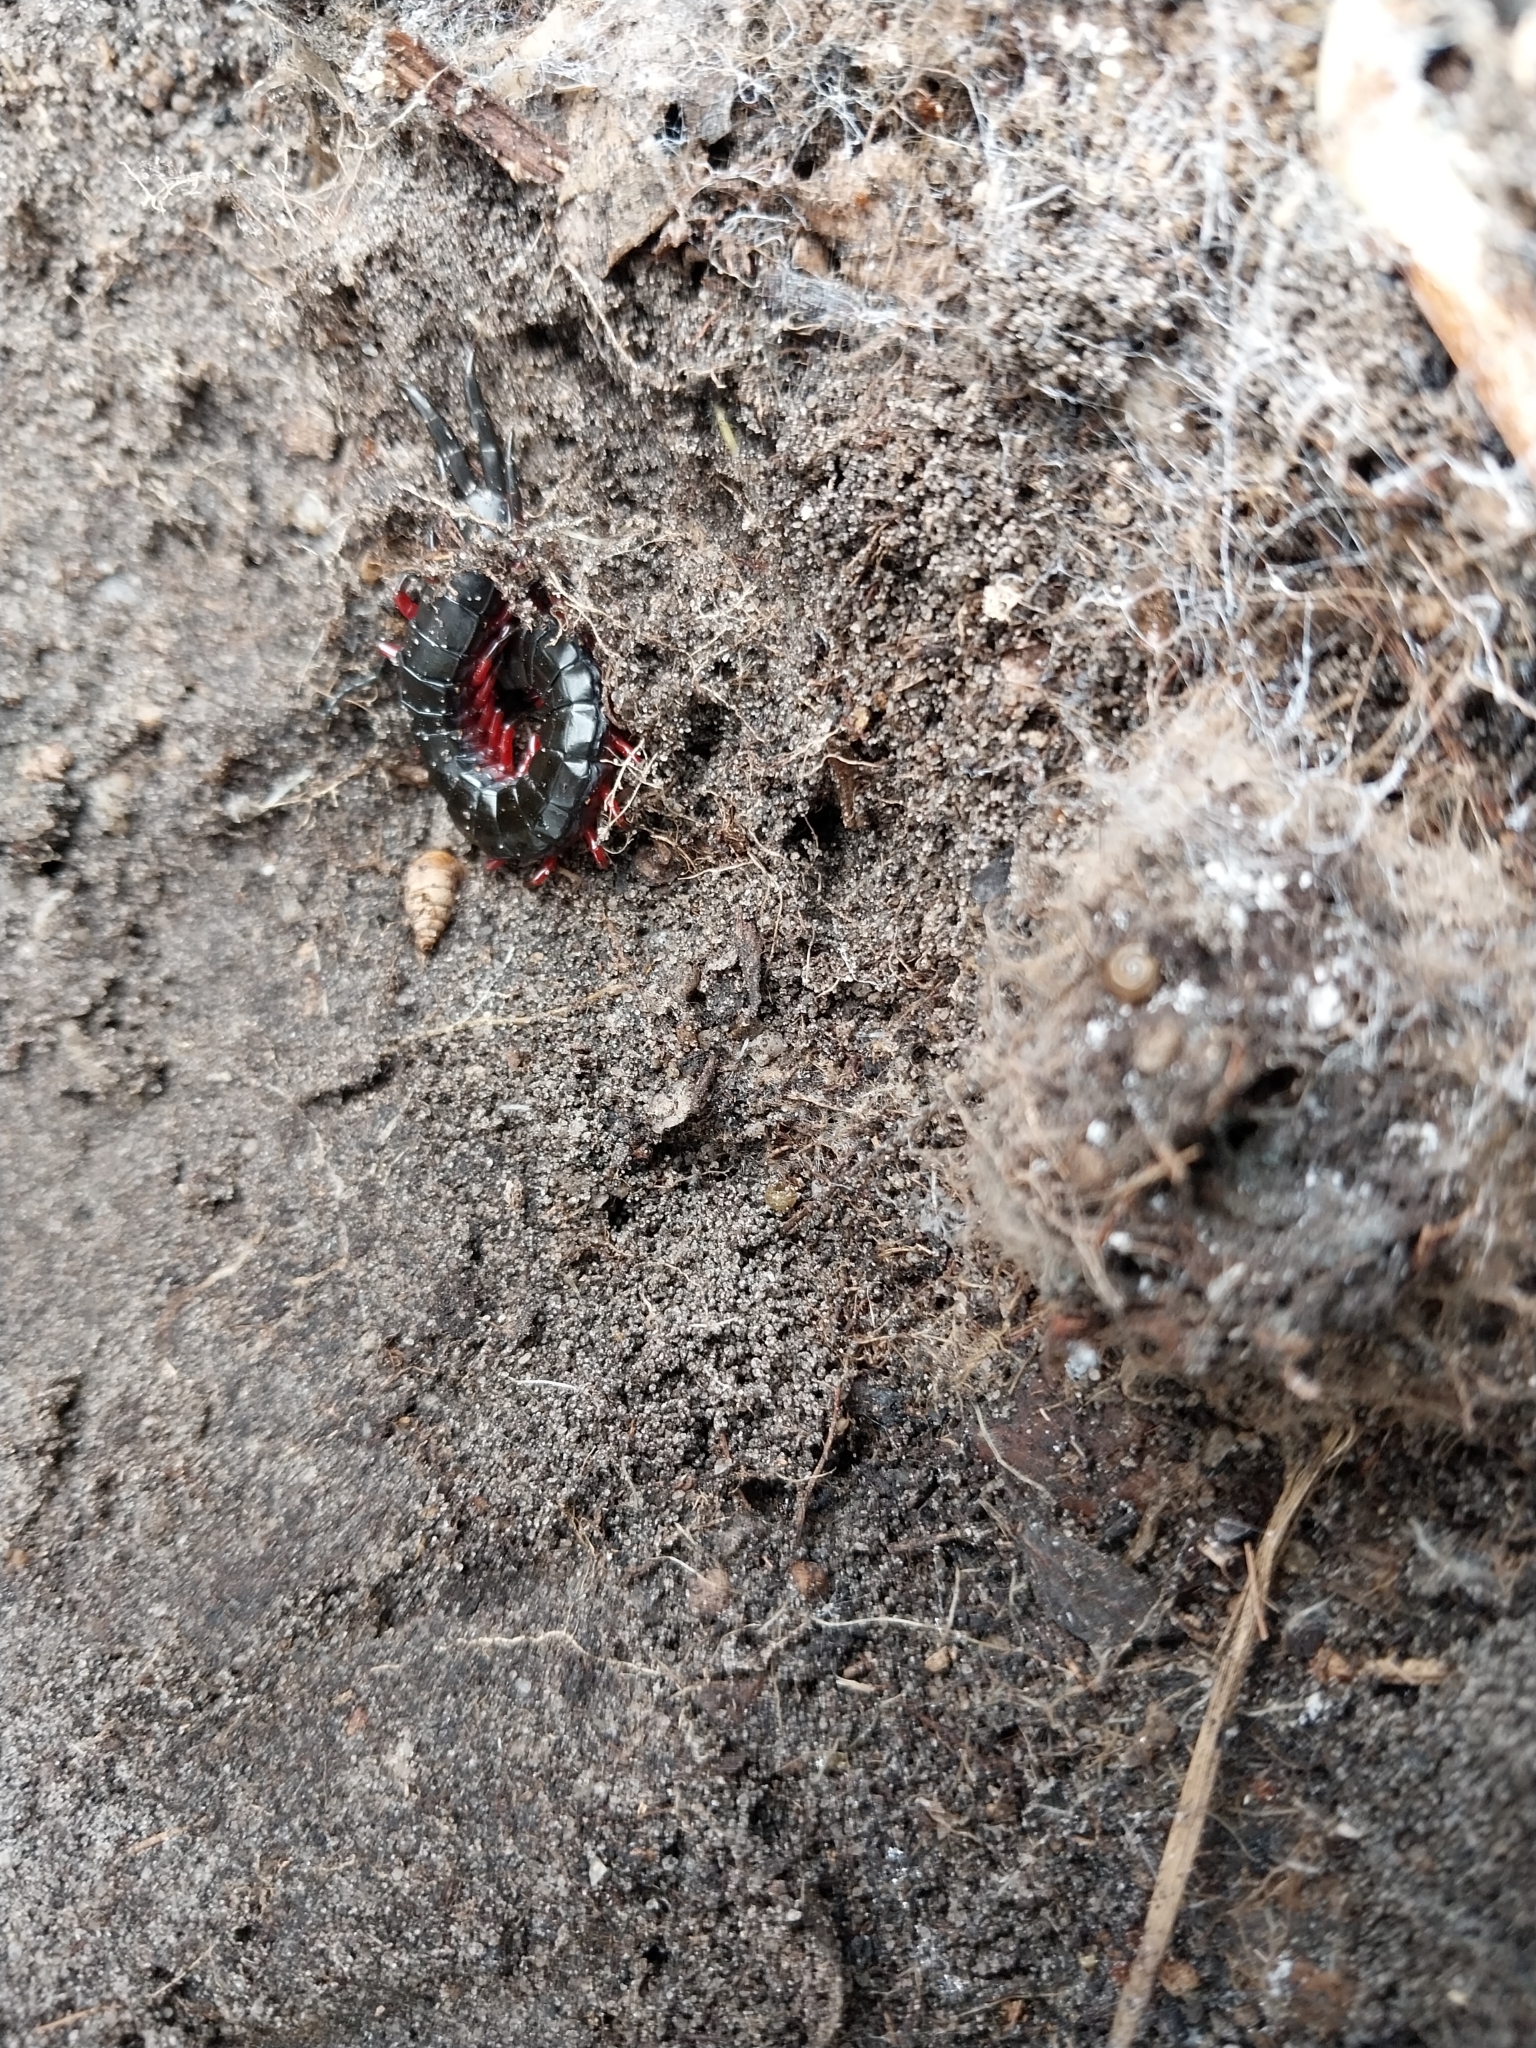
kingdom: Animalia
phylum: Arthropoda
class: Chilopoda
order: Scolopendromorpha
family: Scolopendridae
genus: Cormocephalus
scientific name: Cormocephalus nitidus
